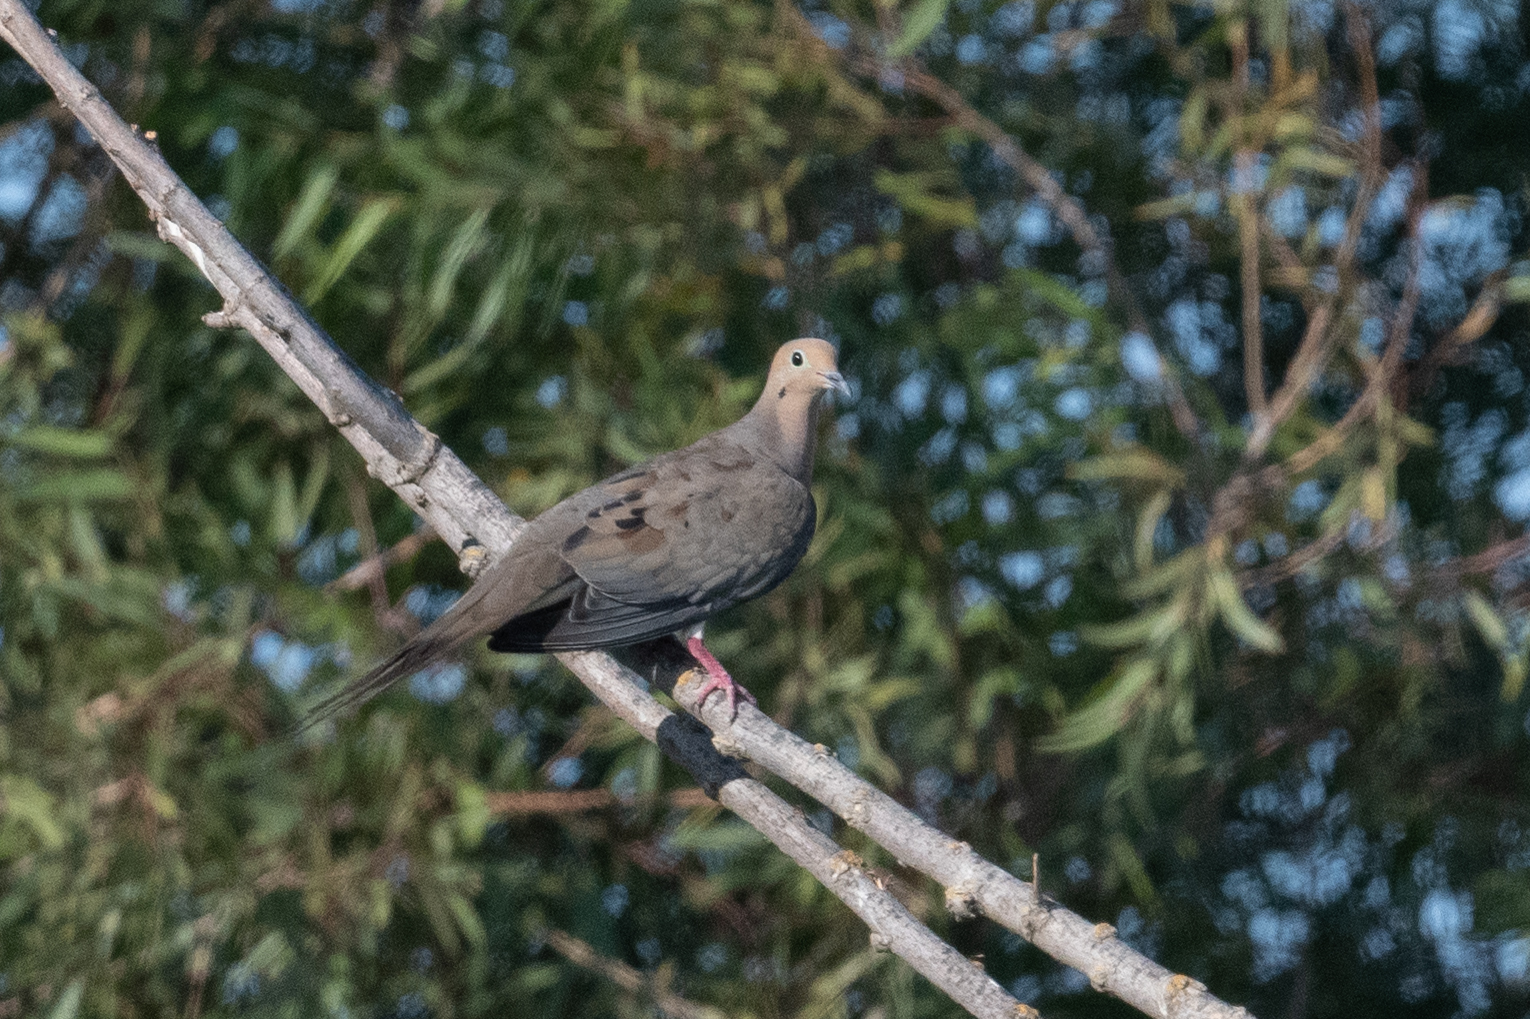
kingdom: Animalia
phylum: Chordata
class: Aves
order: Columbiformes
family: Columbidae
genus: Zenaida
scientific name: Zenaida macroura
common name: Mourning dove
